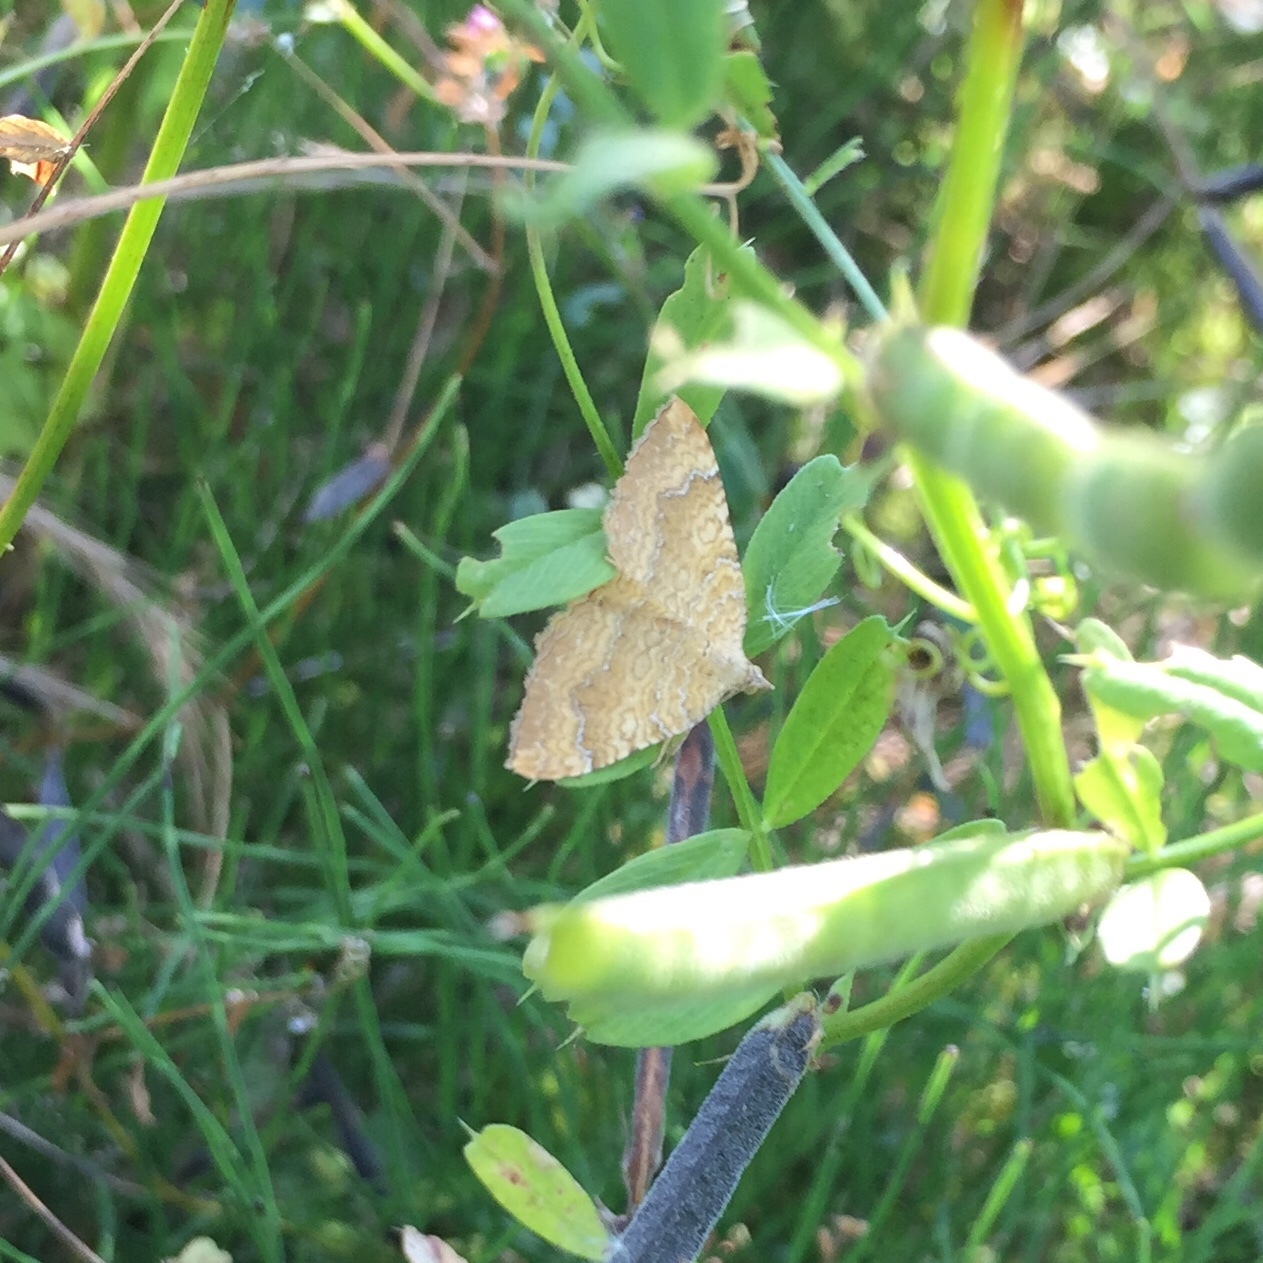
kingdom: Animalia
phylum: Arthropoda
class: Insecta
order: Lepidoptera
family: Geometridae
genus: Camptogramma
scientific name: Camptogramma bilineata
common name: Yellow shell
